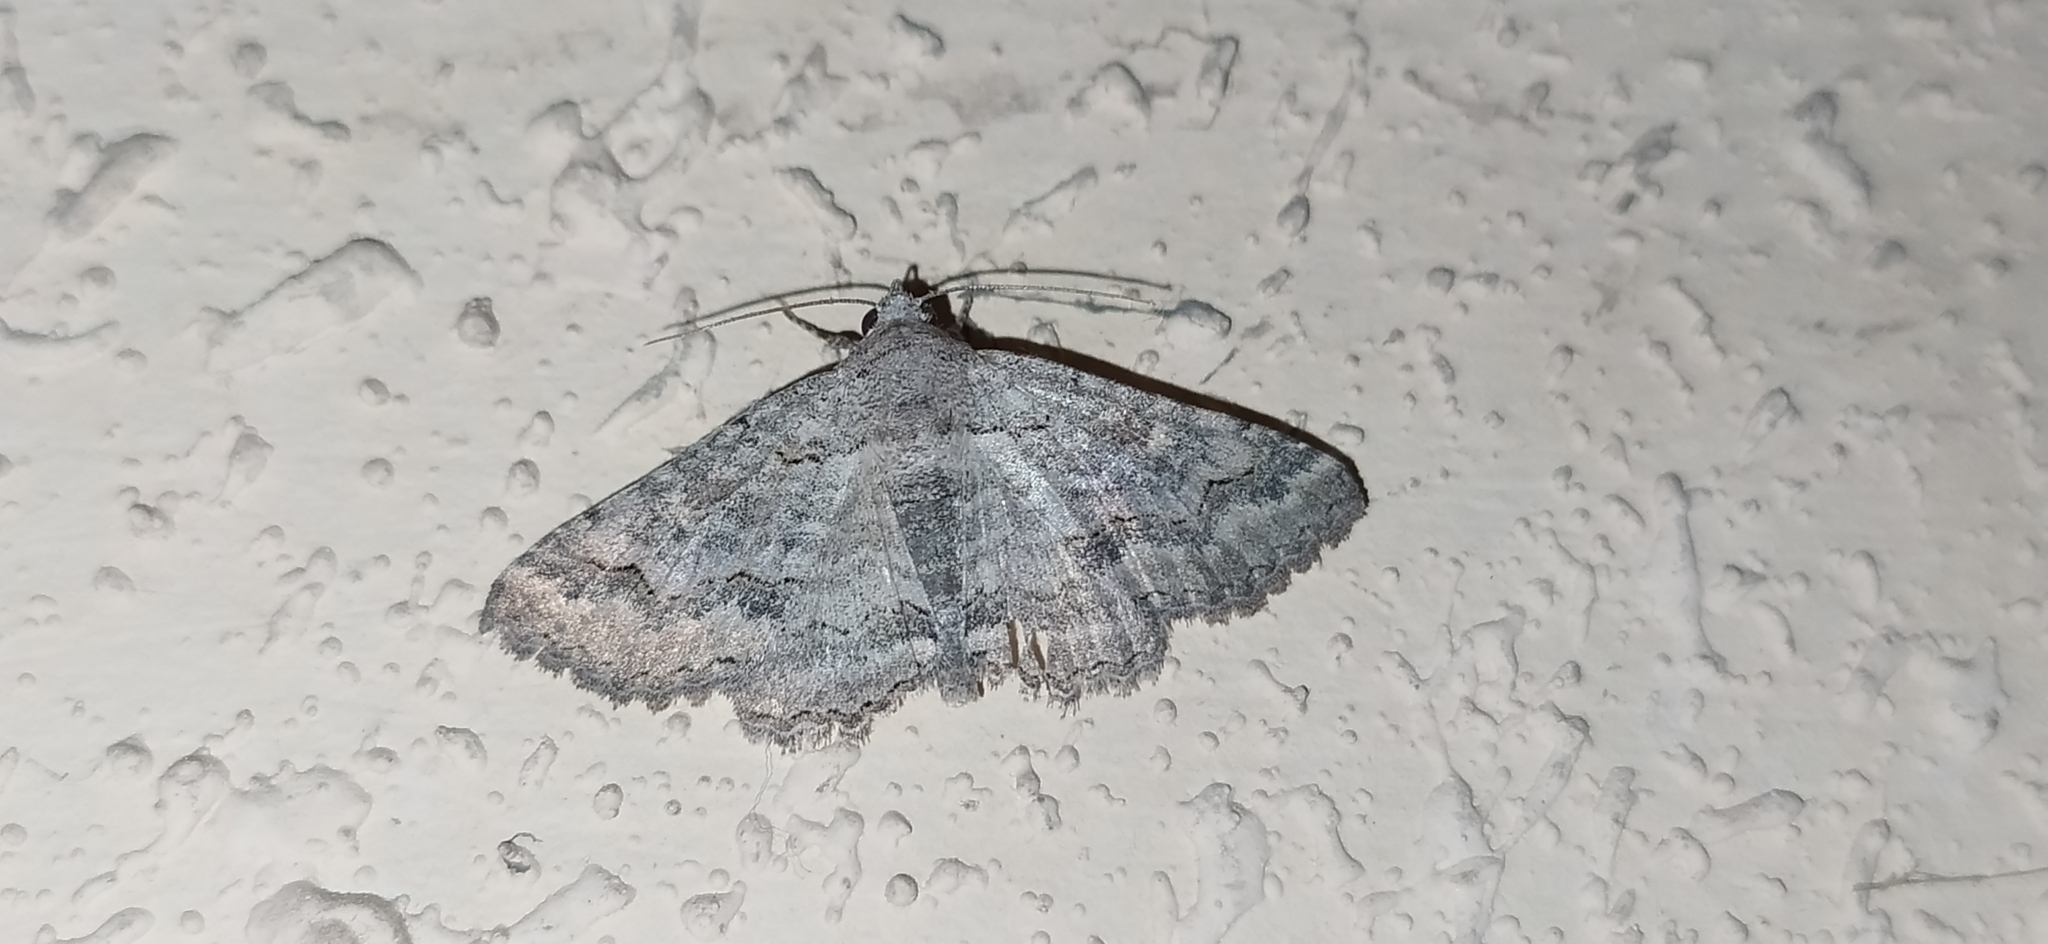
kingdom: Animalia
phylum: Arthropoda
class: Insecta
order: Lepidoptera
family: Erebidae
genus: Pericyma
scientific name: Pericyma albidentaria
